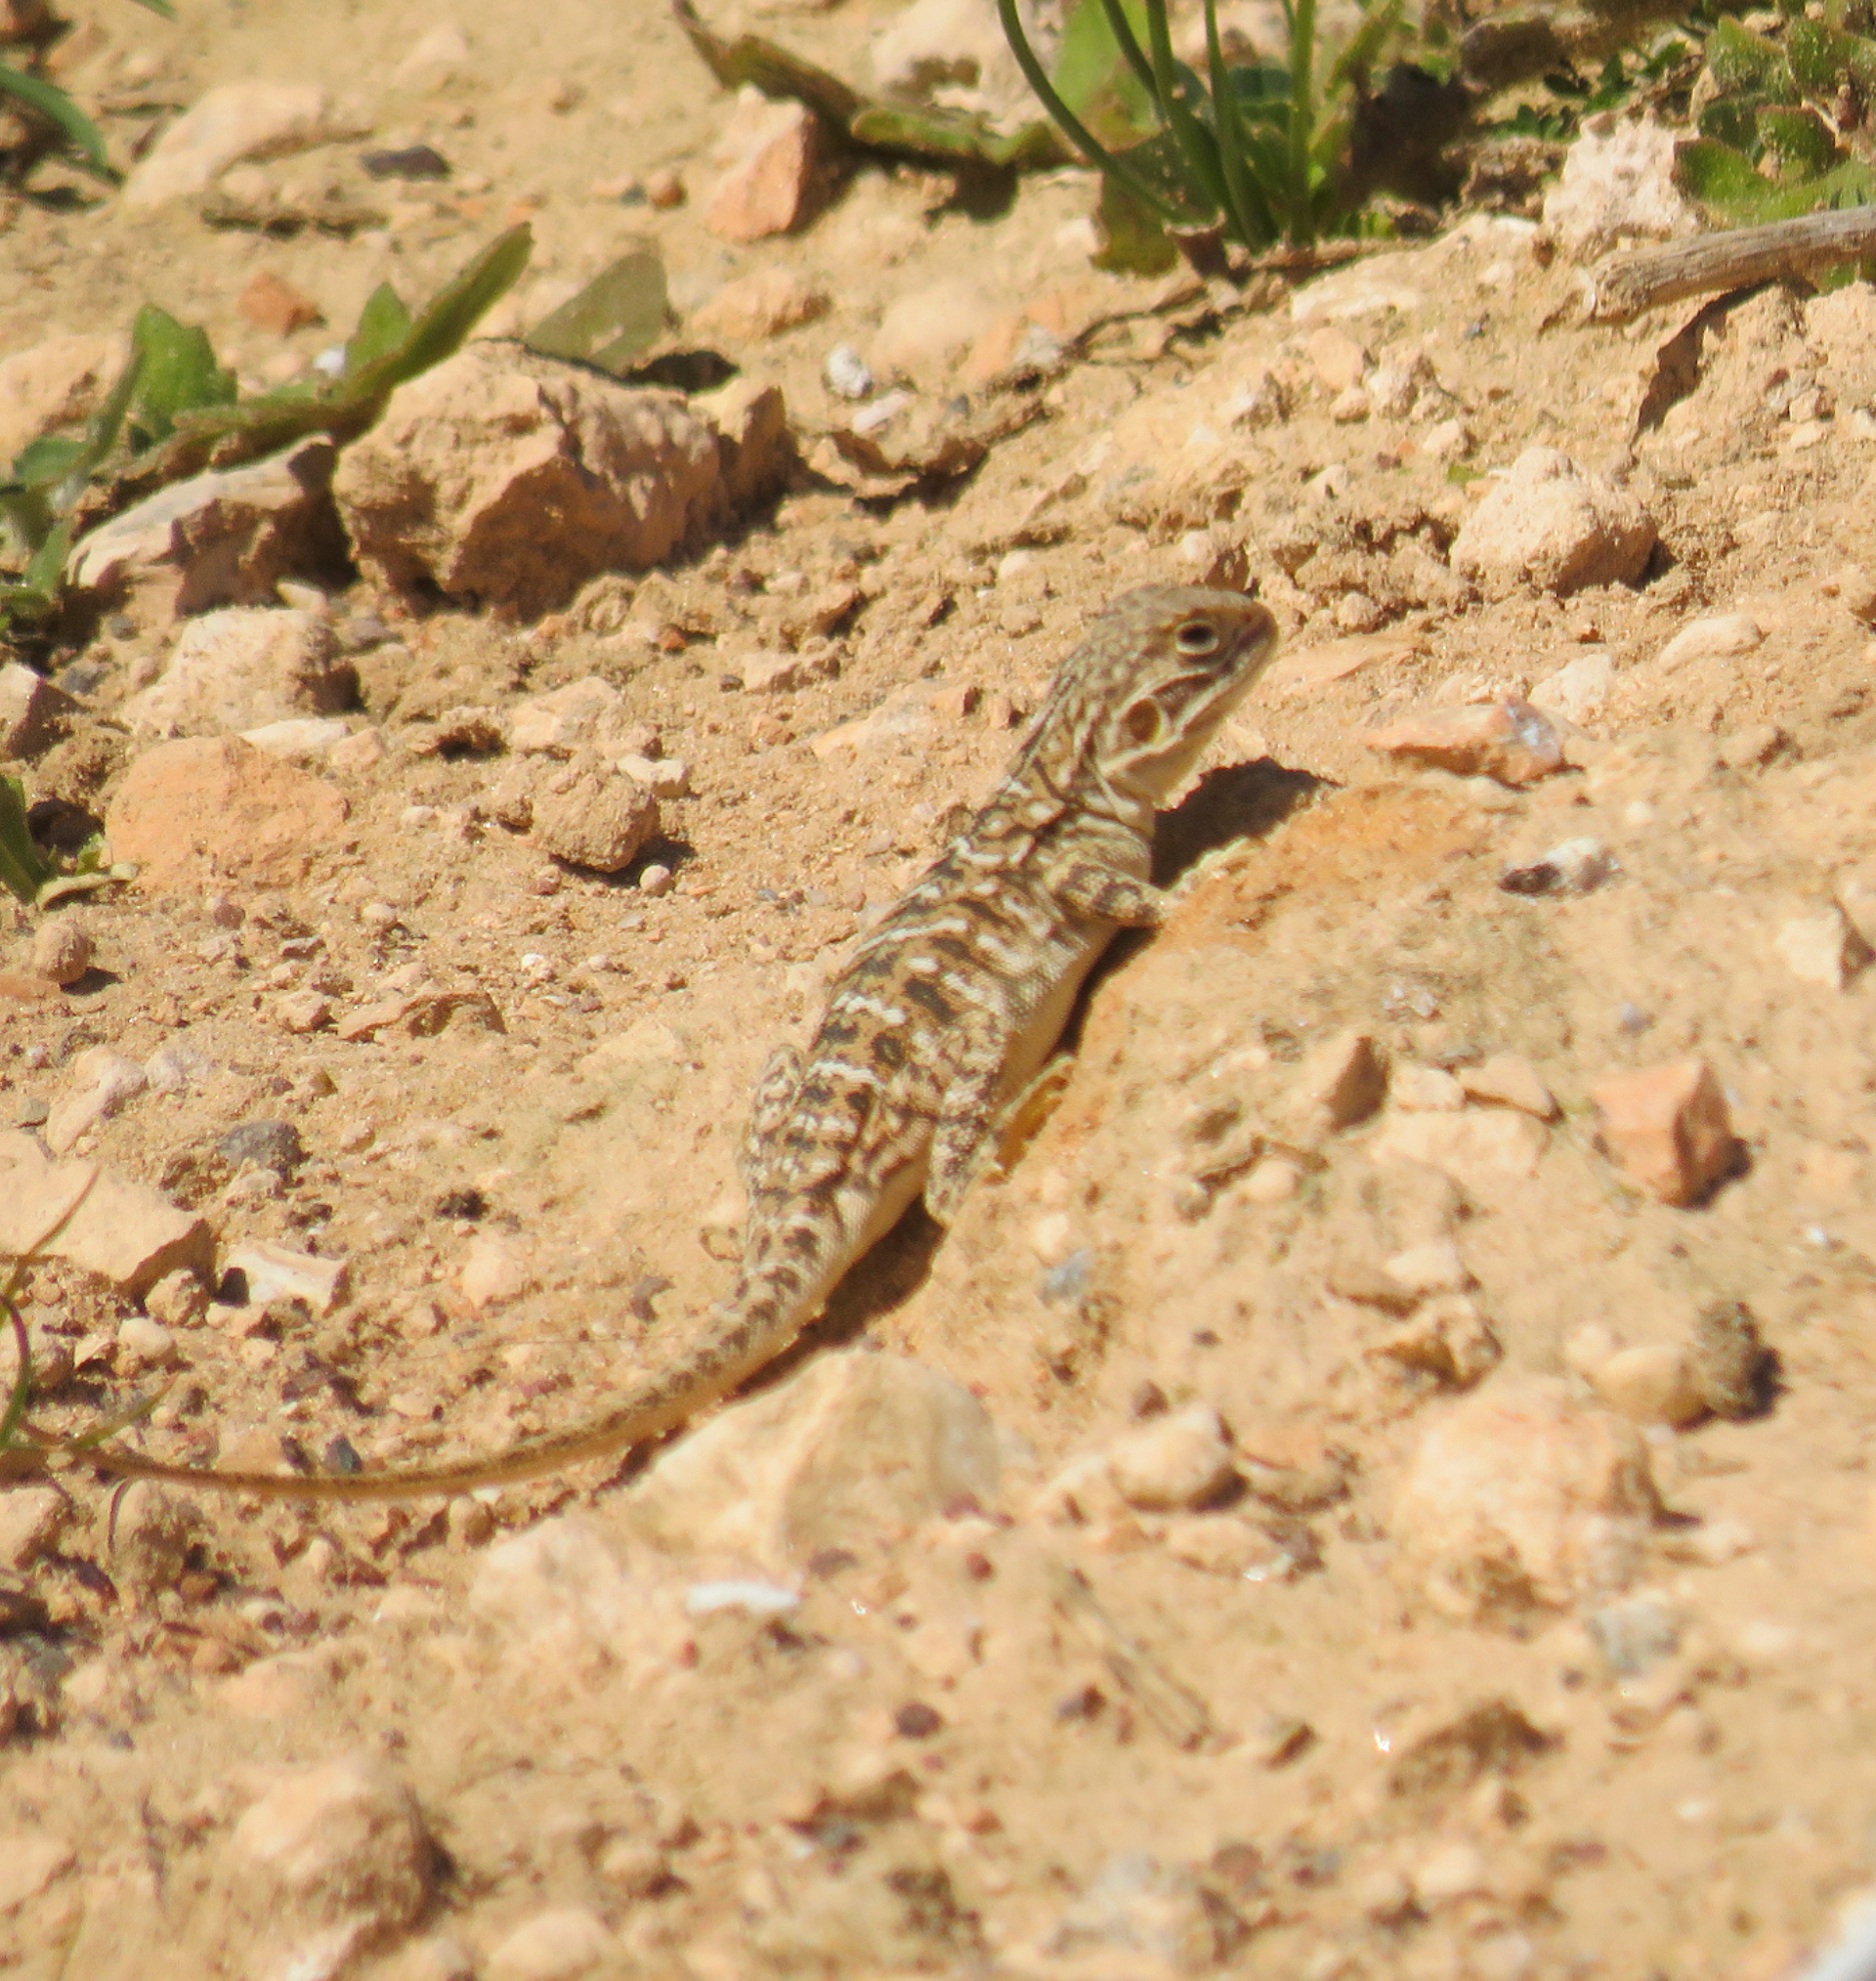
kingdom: Animalia
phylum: Chordata
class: Squamata
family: Agamidae
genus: Ctenophorus
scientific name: Ctenophorus pictus
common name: Painted dragon
